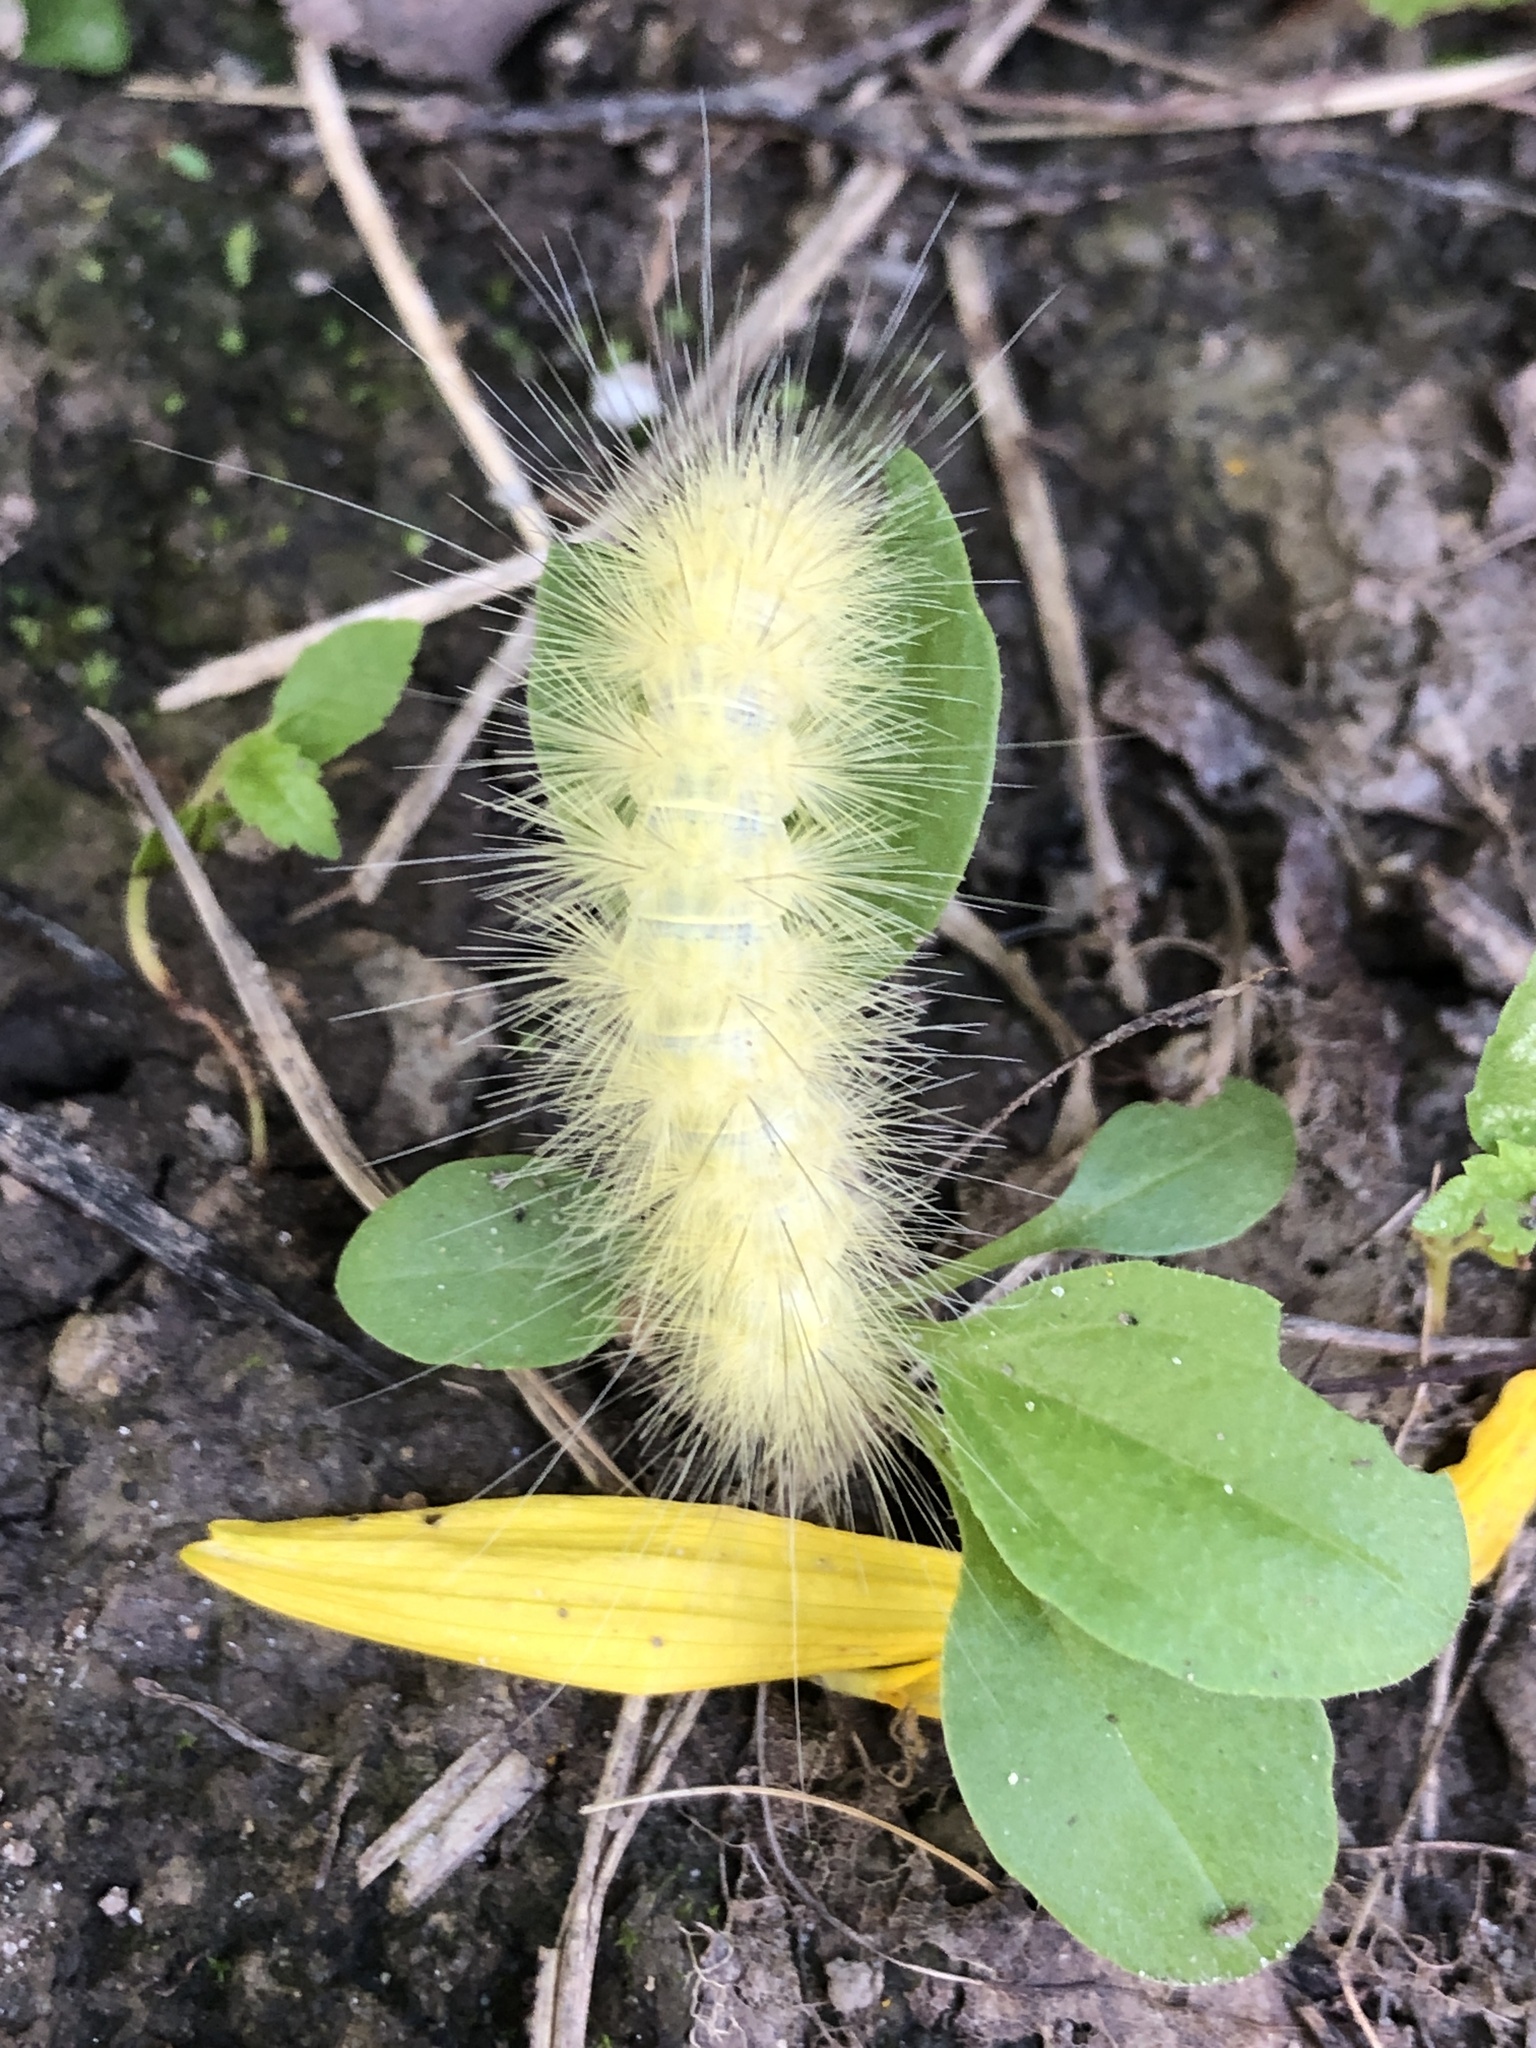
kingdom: Animalia
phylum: Arthropoda
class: Insecta
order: Lepidoptera
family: Erebidae
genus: Spilosoma
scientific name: Spilosoma virginica
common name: Virginia tiger moth
